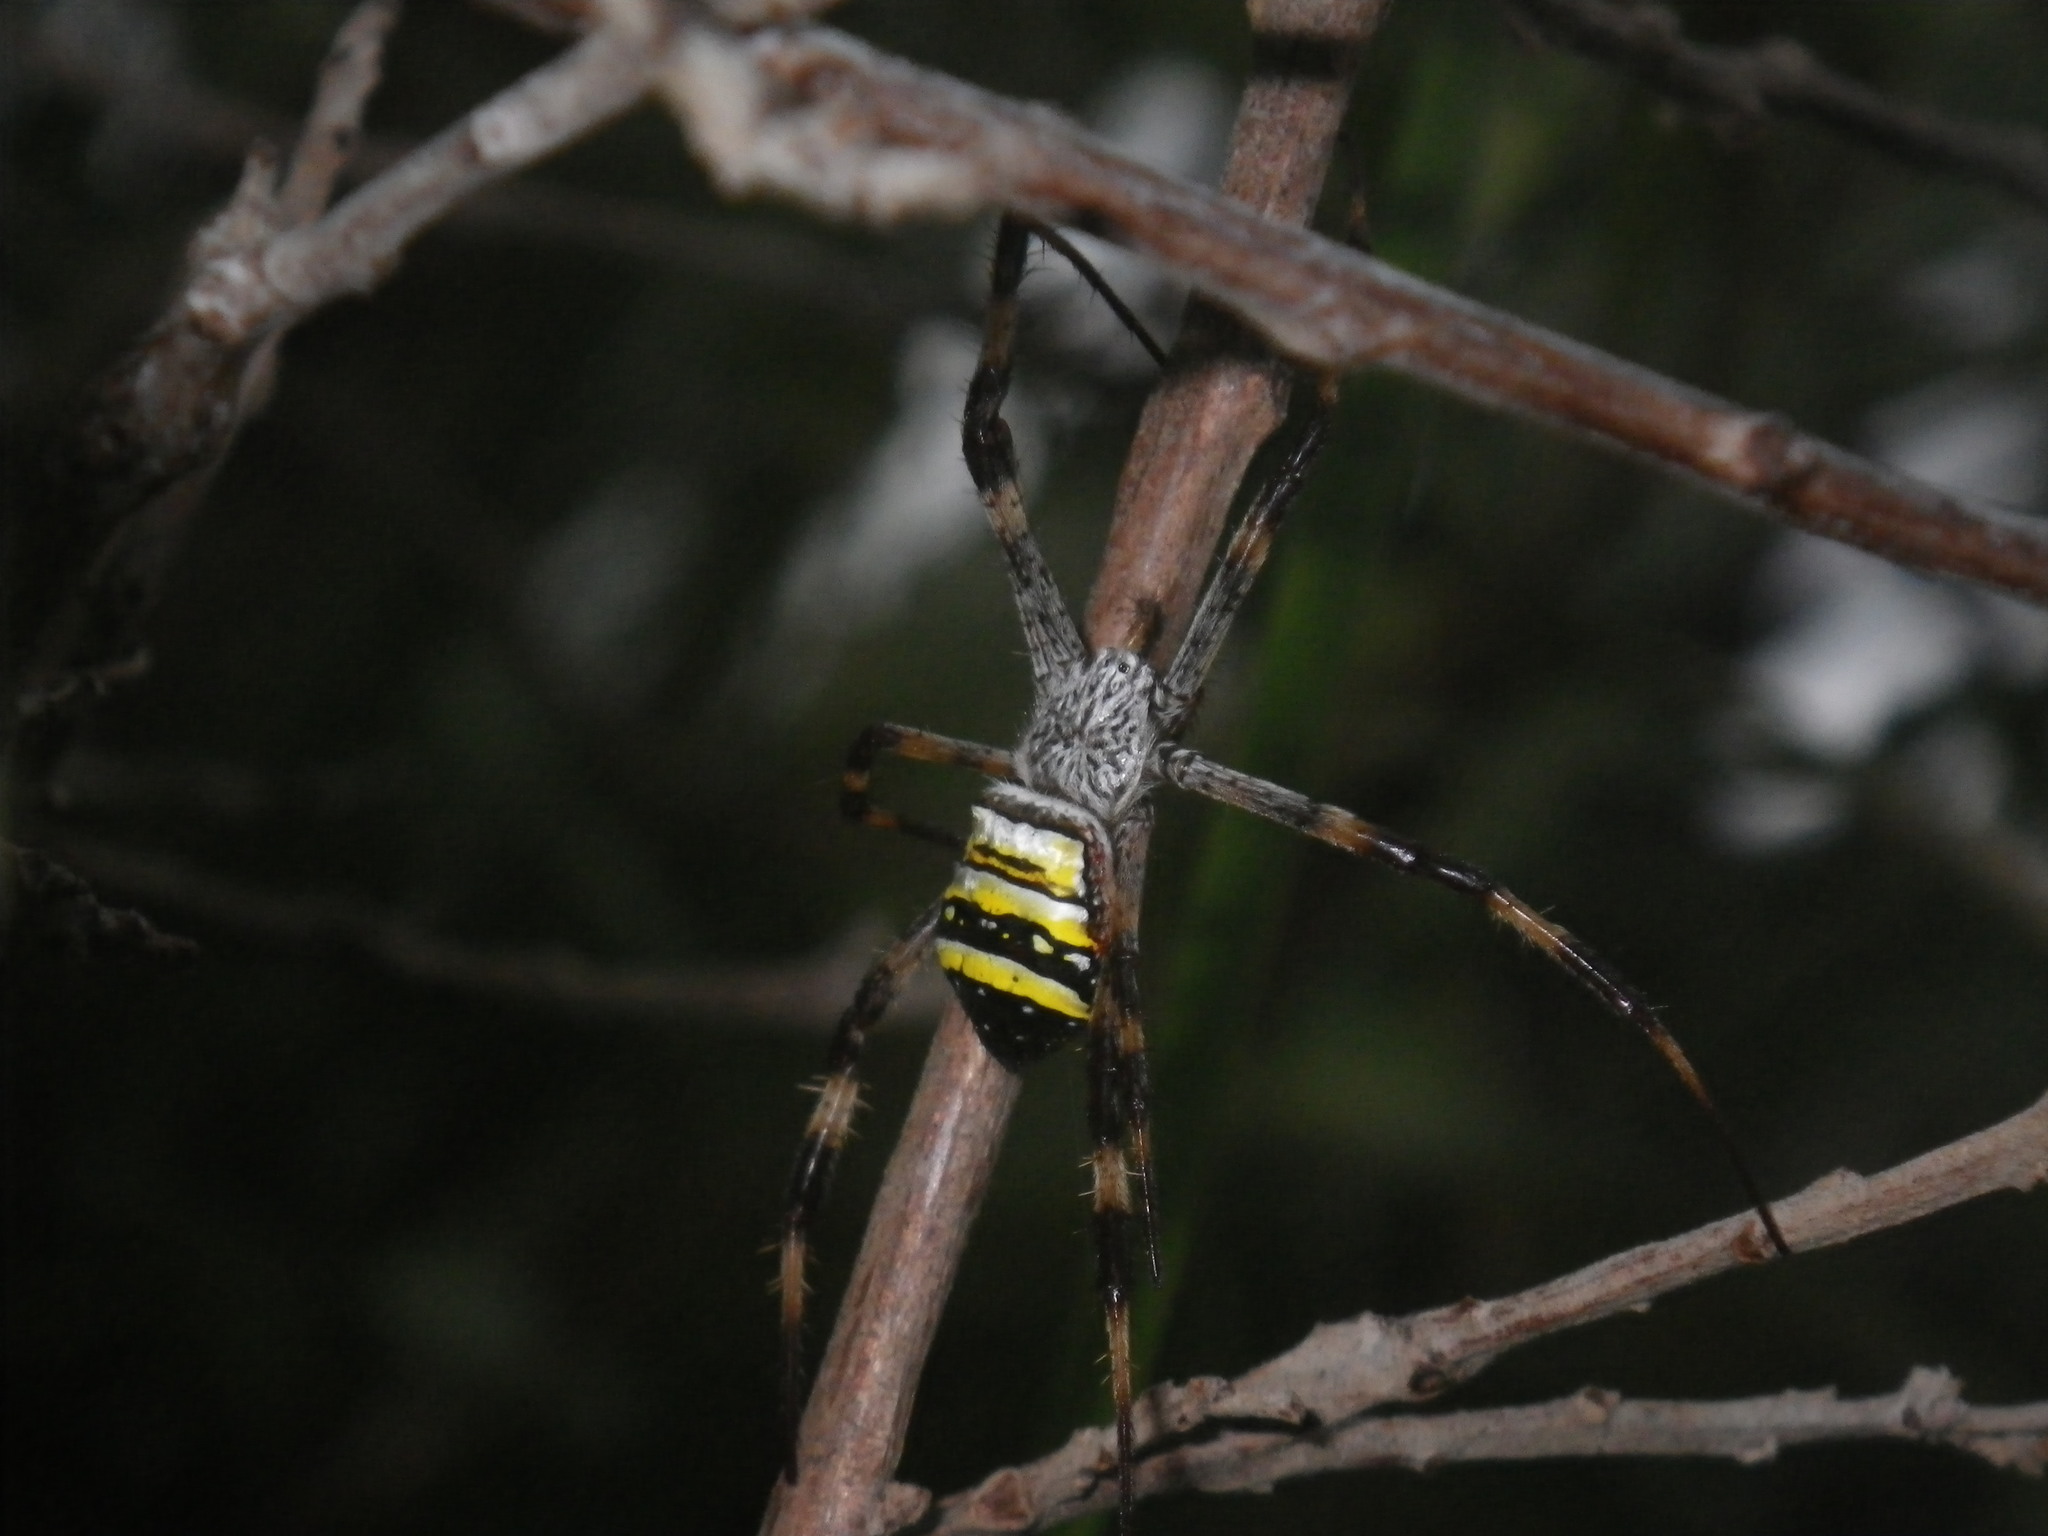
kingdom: Animalia
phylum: Arthropoda
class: Arachnida
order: Araneae
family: Araneidae
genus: Argiope
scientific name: Argiope aetherea
